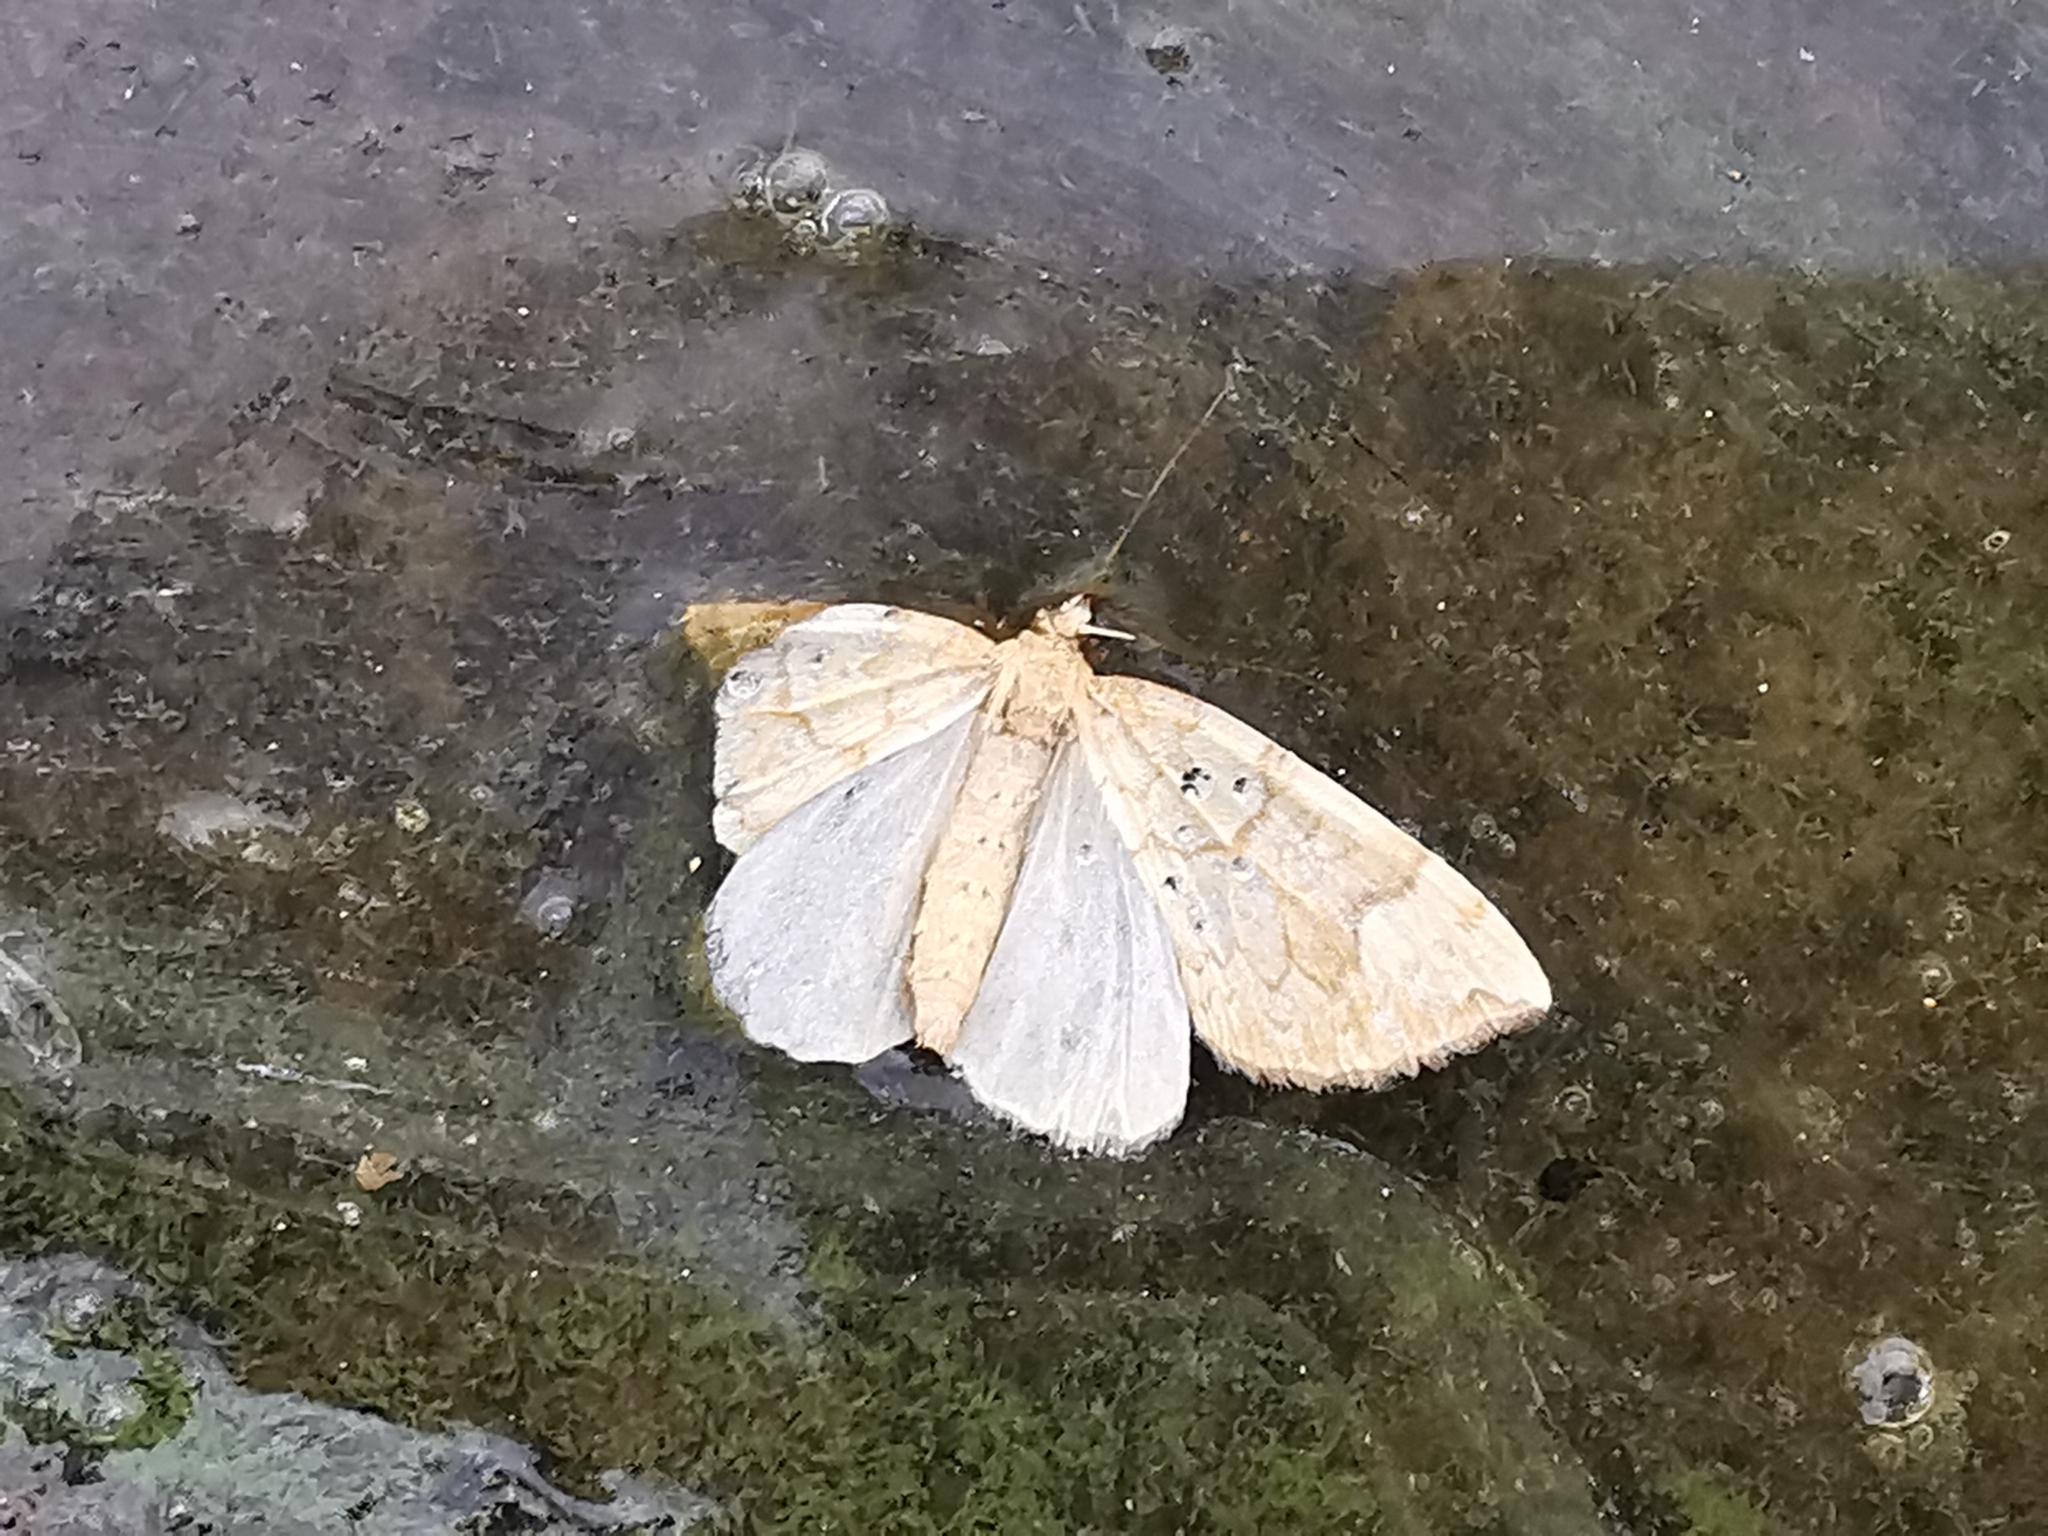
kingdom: Animalia
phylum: Arthropoda
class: Insecta
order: Lepidoptera
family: Geometridae
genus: Eulithis
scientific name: Eulithis populata
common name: Northern spinach
